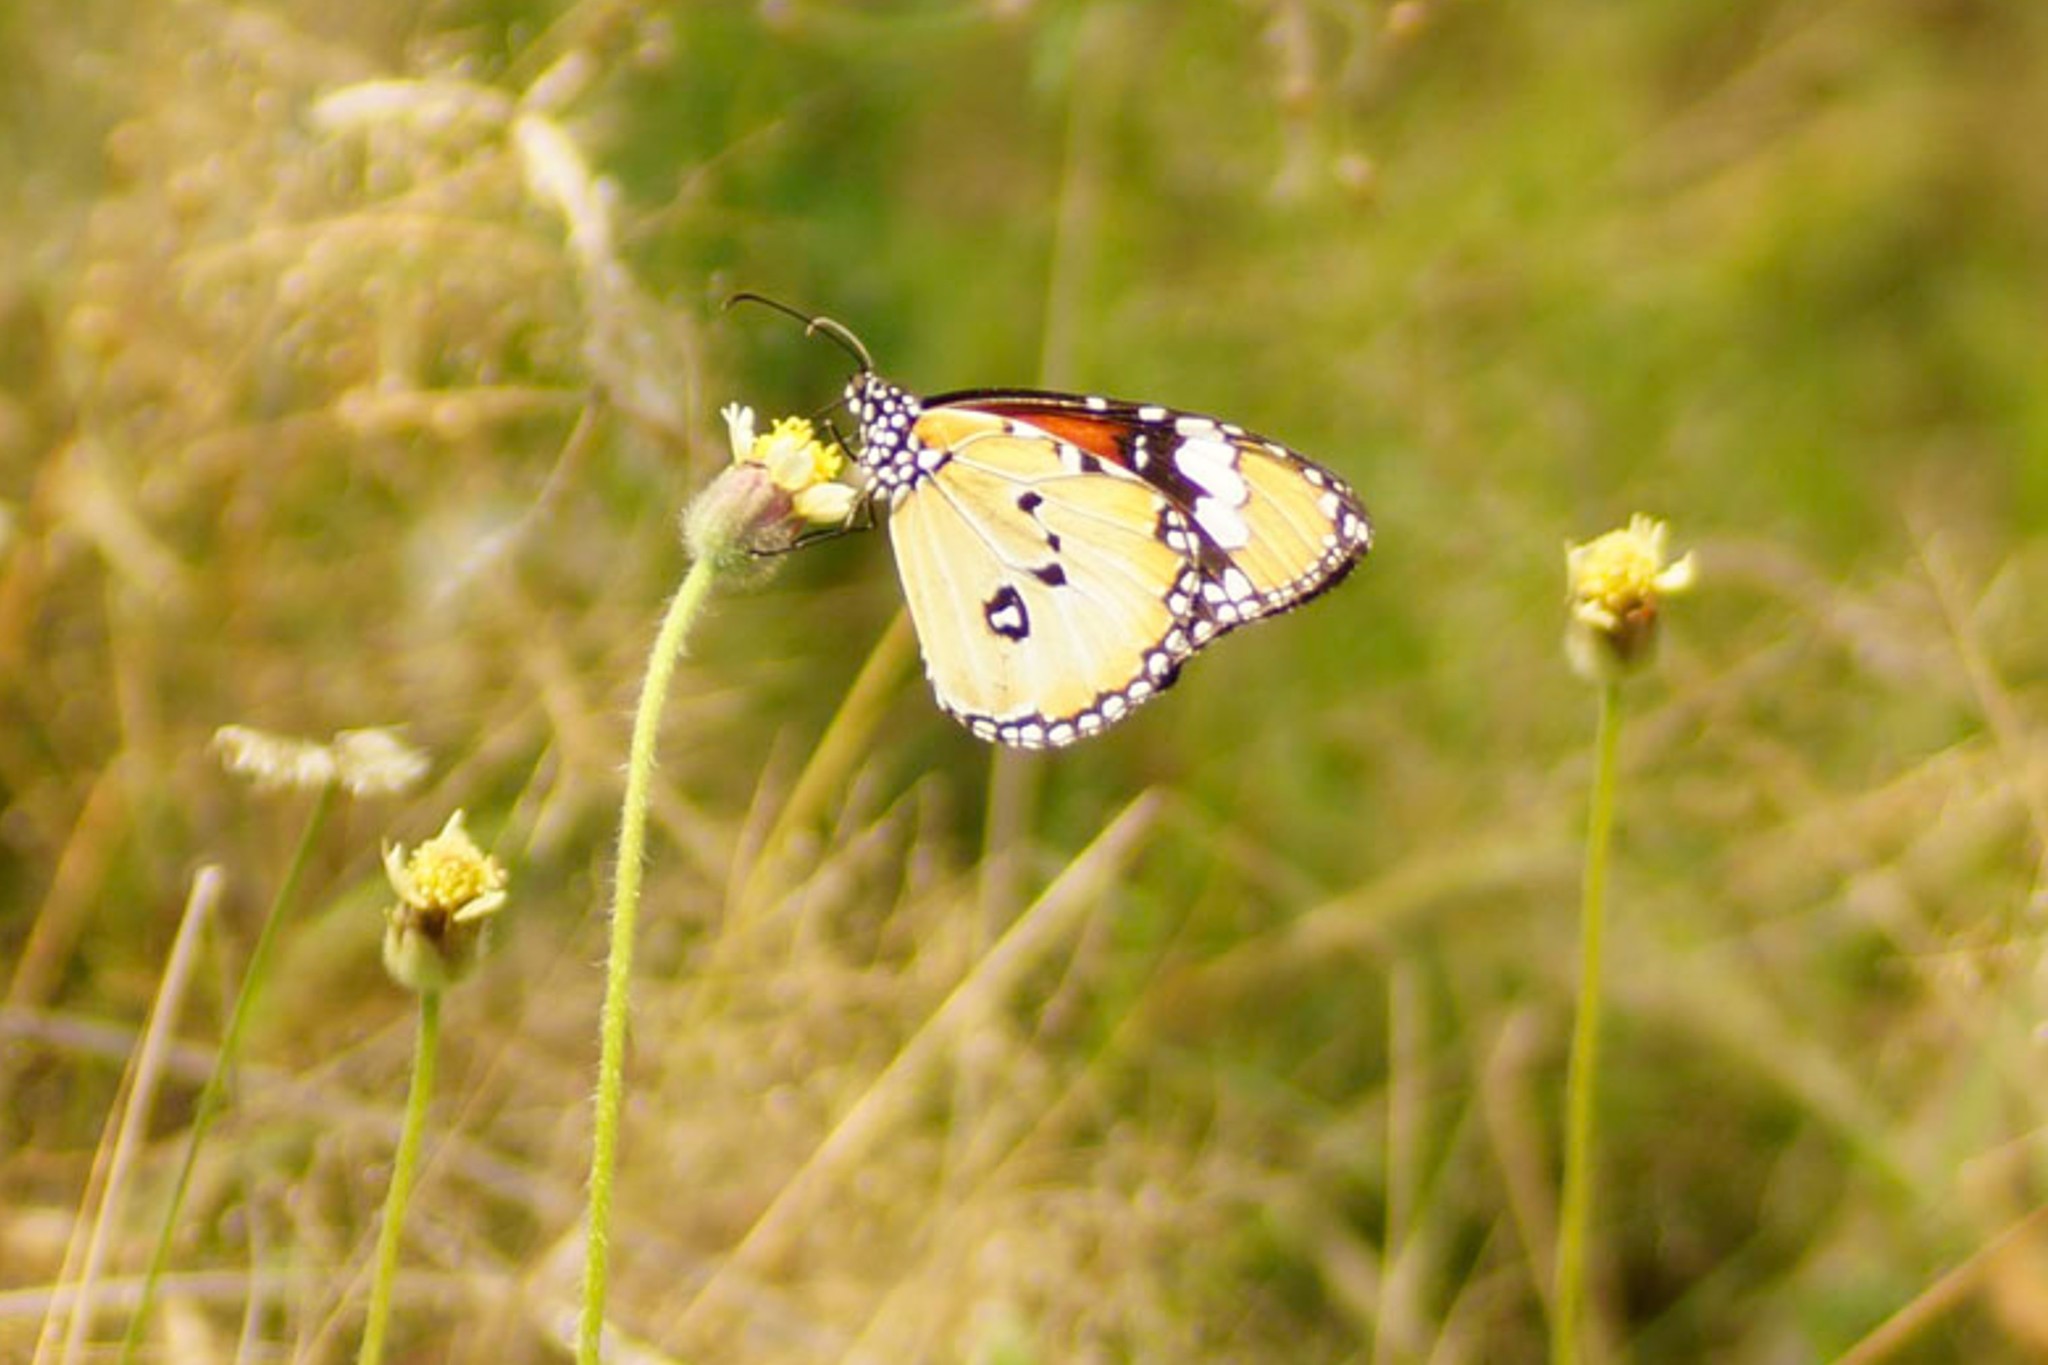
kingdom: Animalia
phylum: Arthropoda
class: Insecta
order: Lepidoptera
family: Nymphalidae
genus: Danaus
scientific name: Danaus chrysippus
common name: Plain tiger
